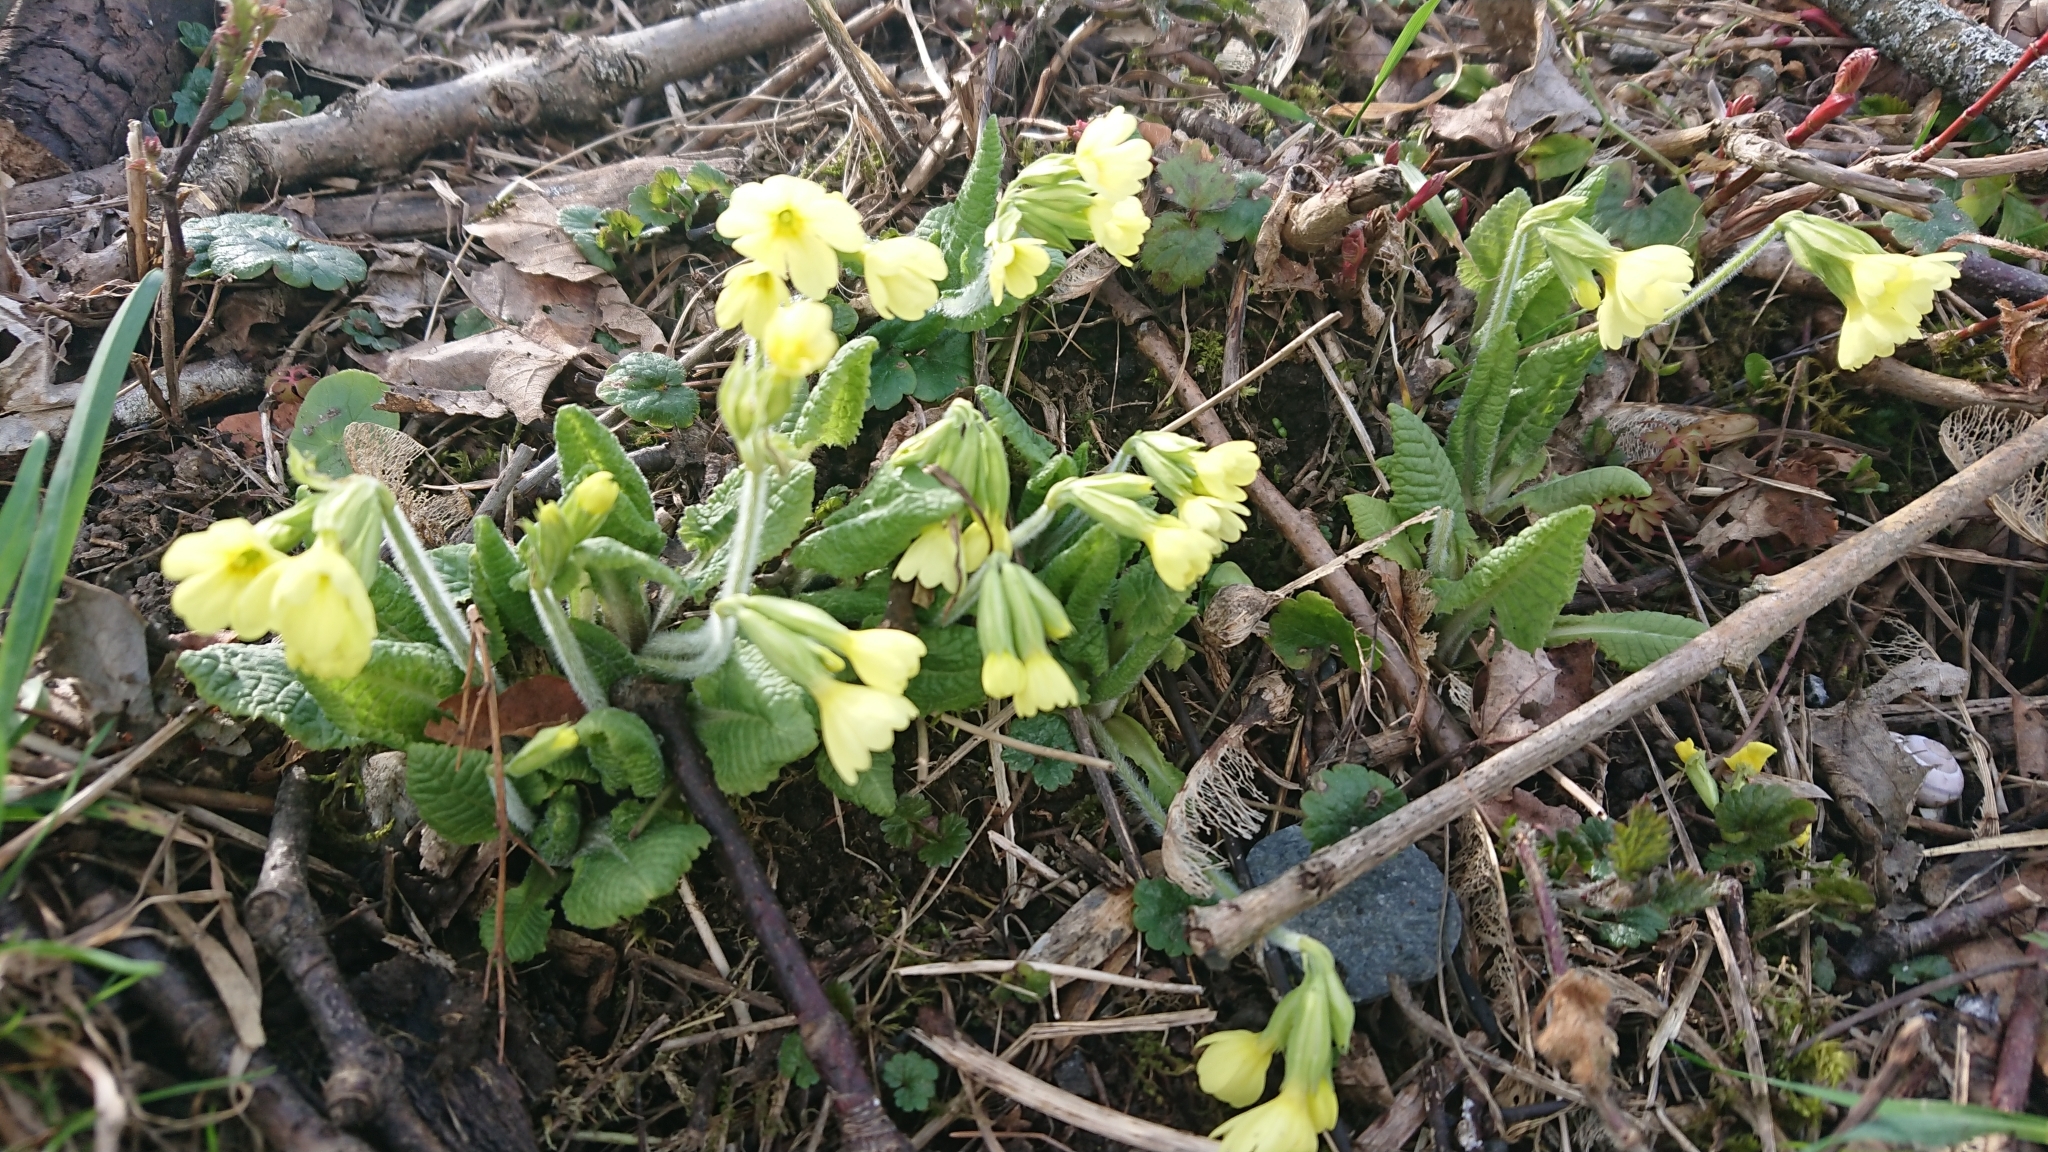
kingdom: Plantae
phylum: Tracheophyta
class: Magnoliopsida
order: Ericales
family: Primulaceae
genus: Primula
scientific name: Primula elatior
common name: Oxlip
